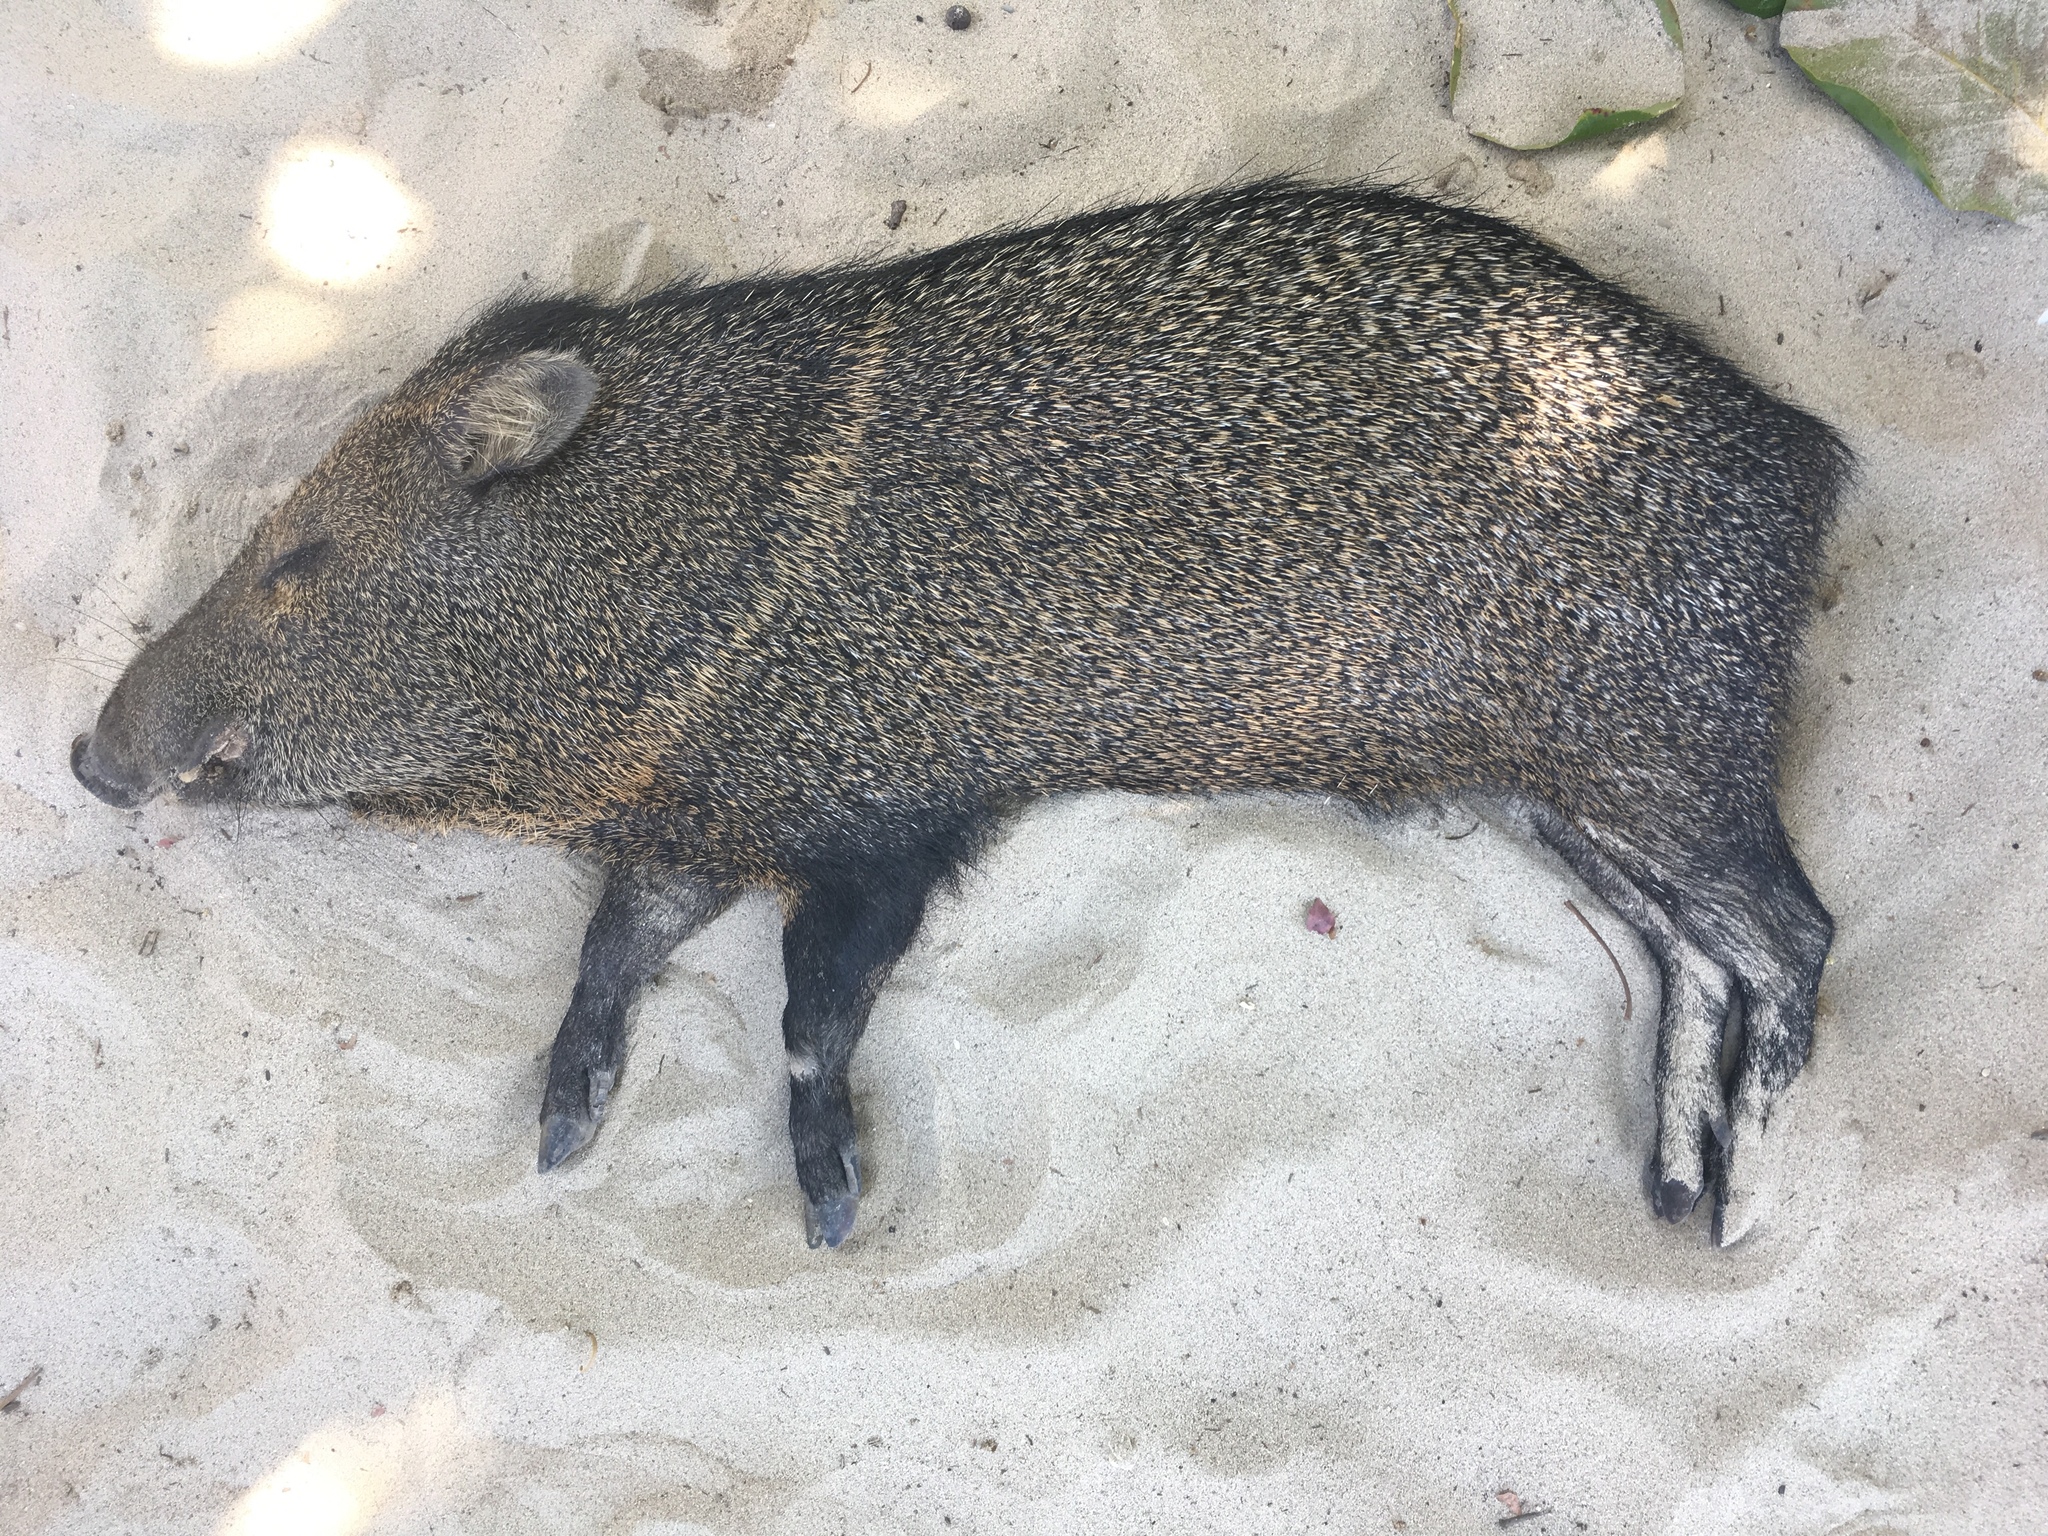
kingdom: Animalia
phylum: Chordata
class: Mammalia
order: Artiodactyla
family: Tayassuidae
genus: Pecari
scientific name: Pecari tajacu
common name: Collared peccary
